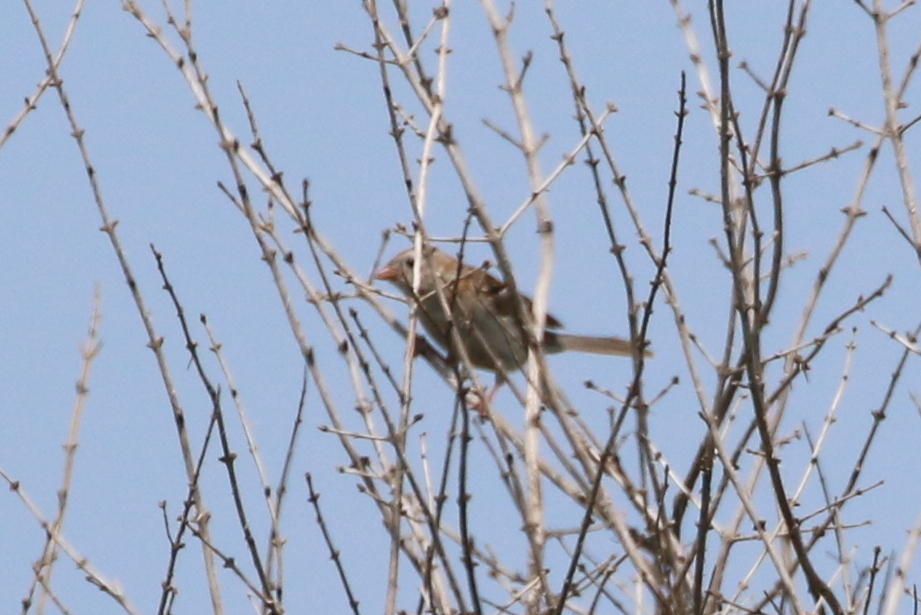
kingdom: Animalia
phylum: Chordata
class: Aves
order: Passeriformes
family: Passerellidae
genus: Spizella
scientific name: Spizella pusilla
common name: Field sparrow
